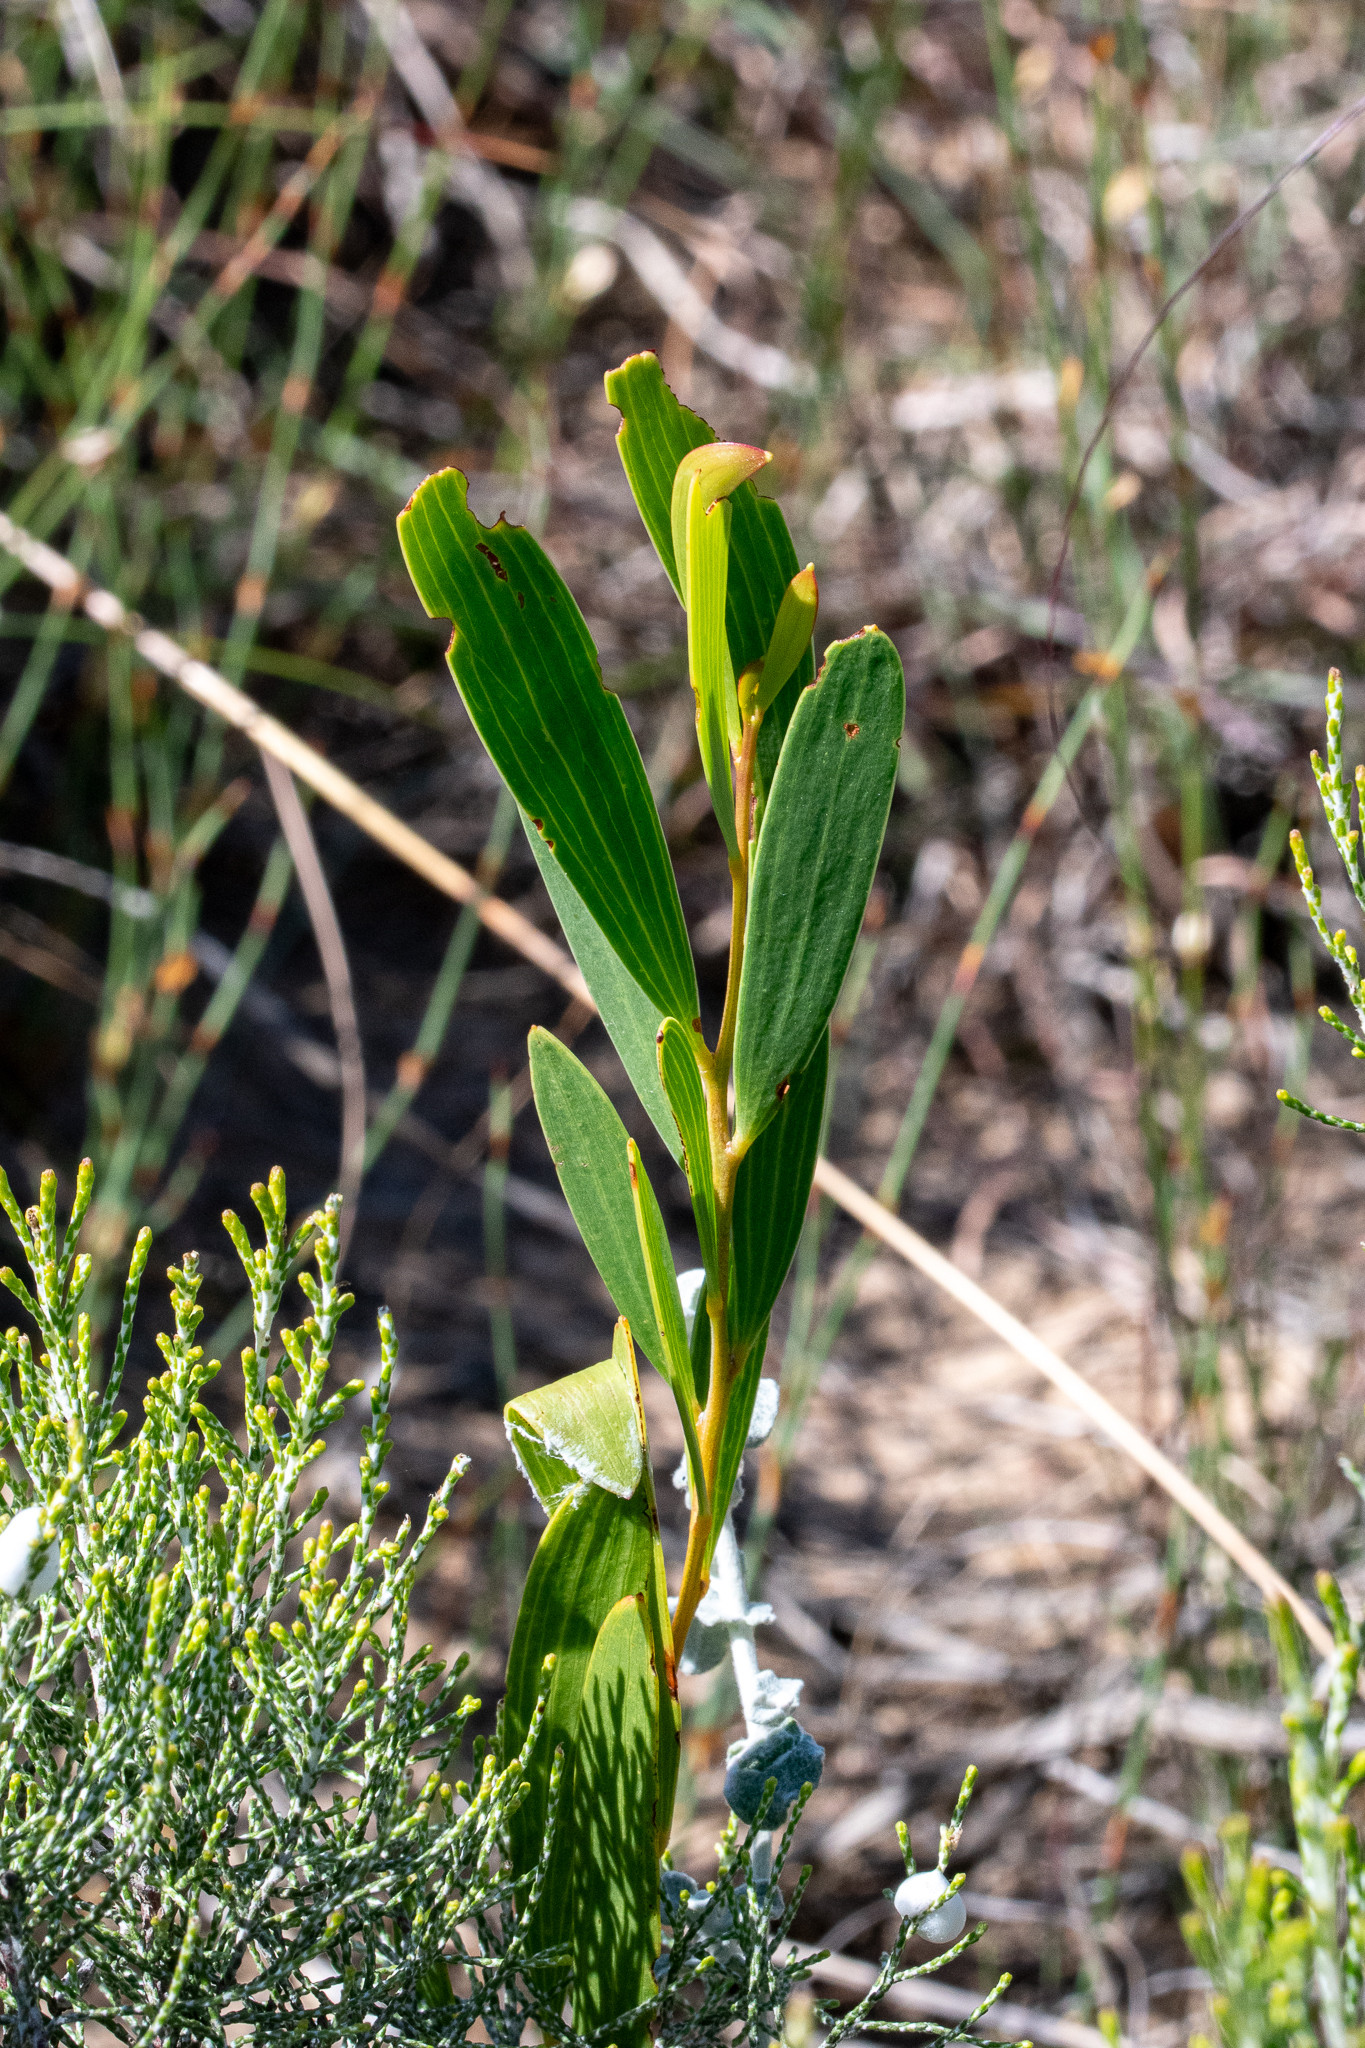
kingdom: Plantae
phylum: Tracheophyta
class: Magnoliopsida
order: Fabales
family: Fabaceae
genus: Acacia
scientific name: Acacia cyclops
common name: Coastal wattle
